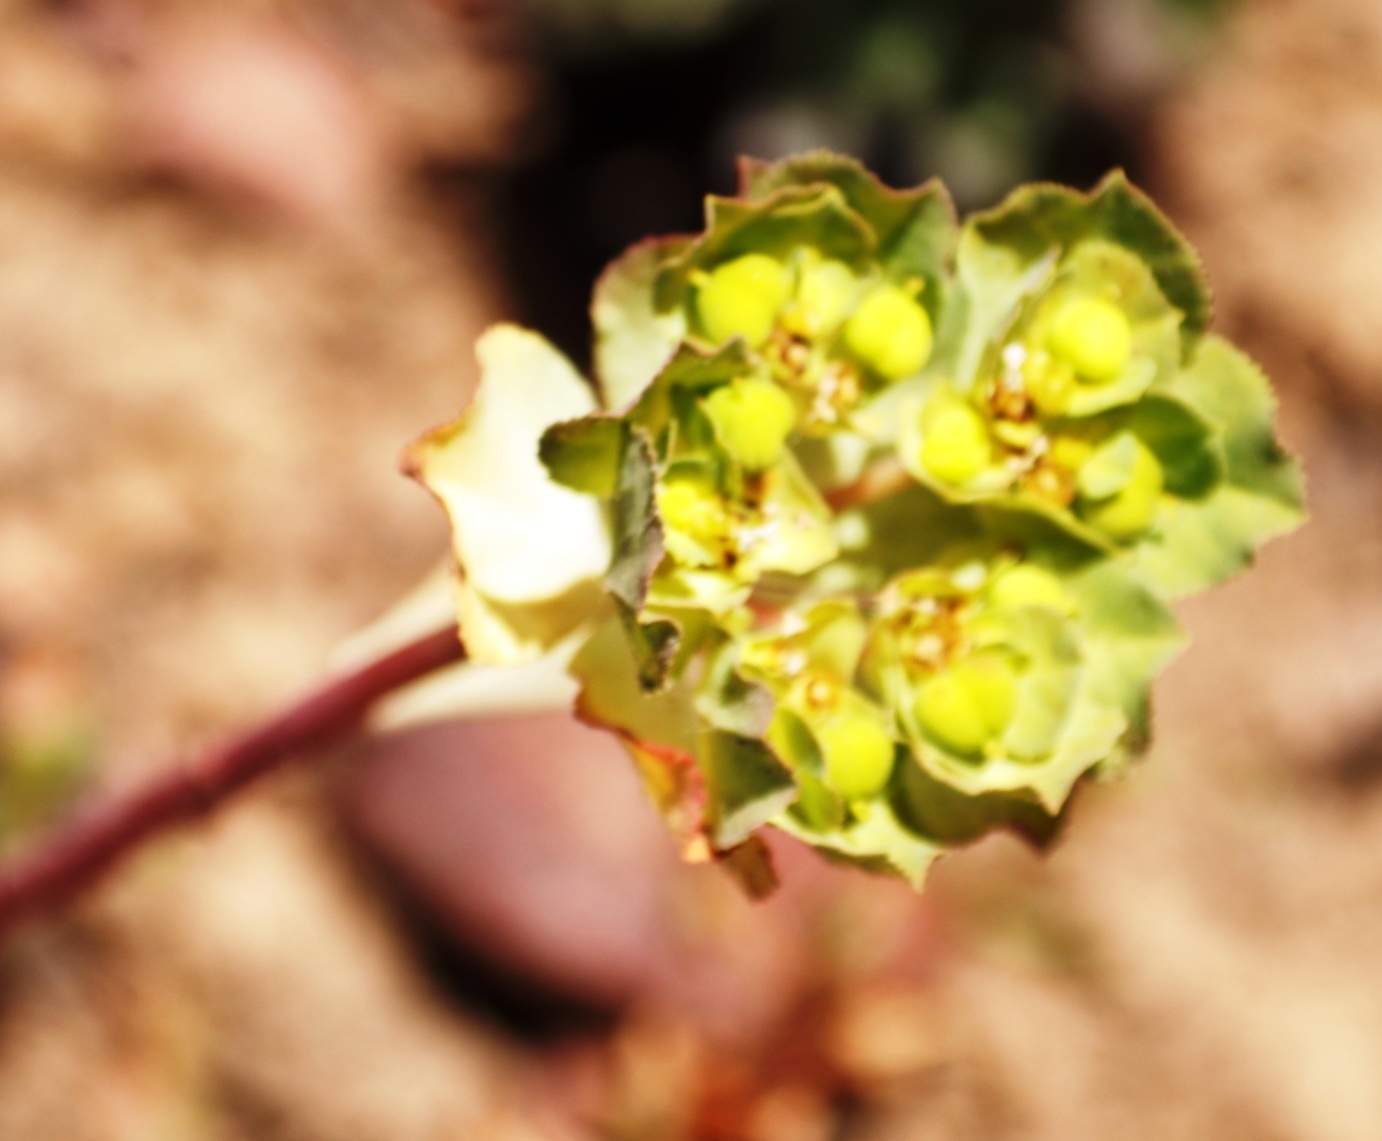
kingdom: Plantae
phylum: Tracheophyta
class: Magnoliopsida
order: Malpighiales
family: Euphorbiaceae
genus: Euphorbia
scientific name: Euphorbia helioscopia
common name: Sun spurge
